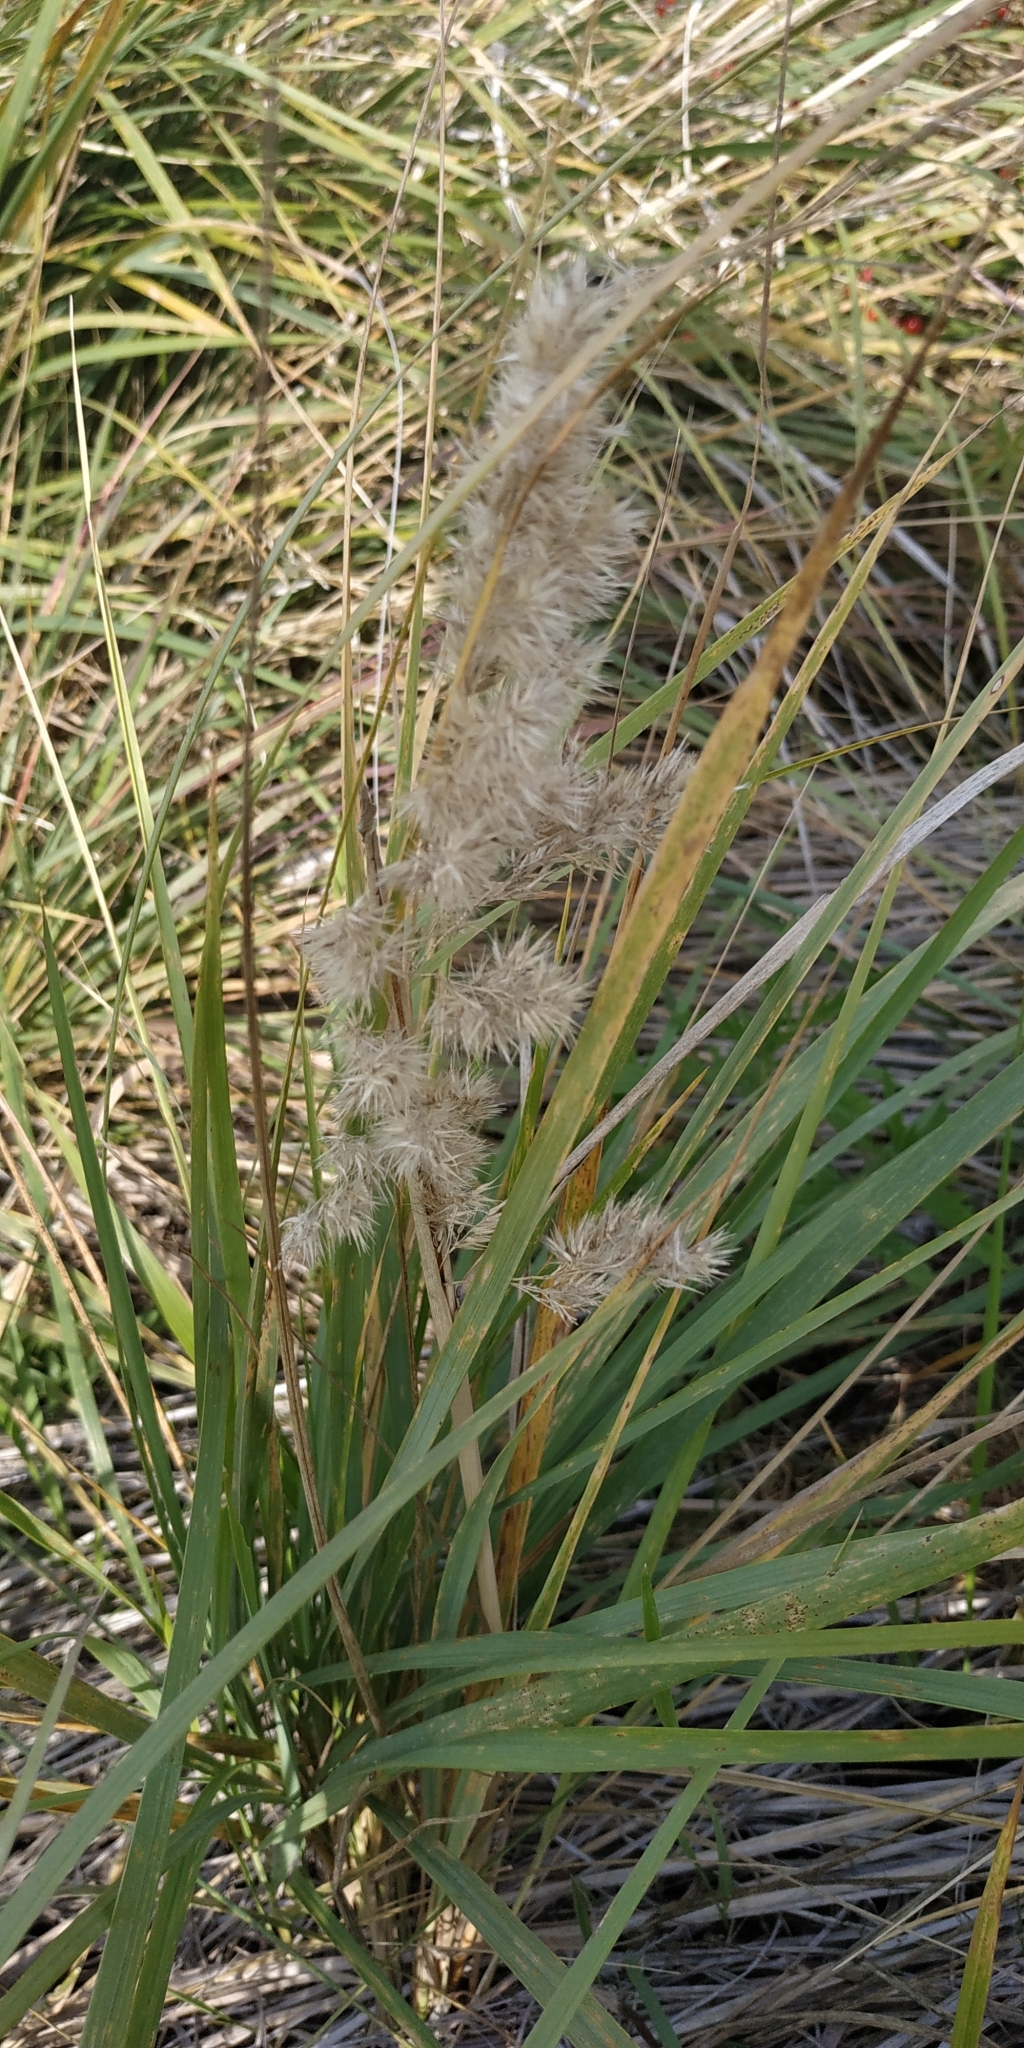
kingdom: Plantae
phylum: Tracheophyta
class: Liliopsida
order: Poales
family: Poaceae
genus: Calamagrostis
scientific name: Calamagrostis epigejos
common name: Wood small-reed
